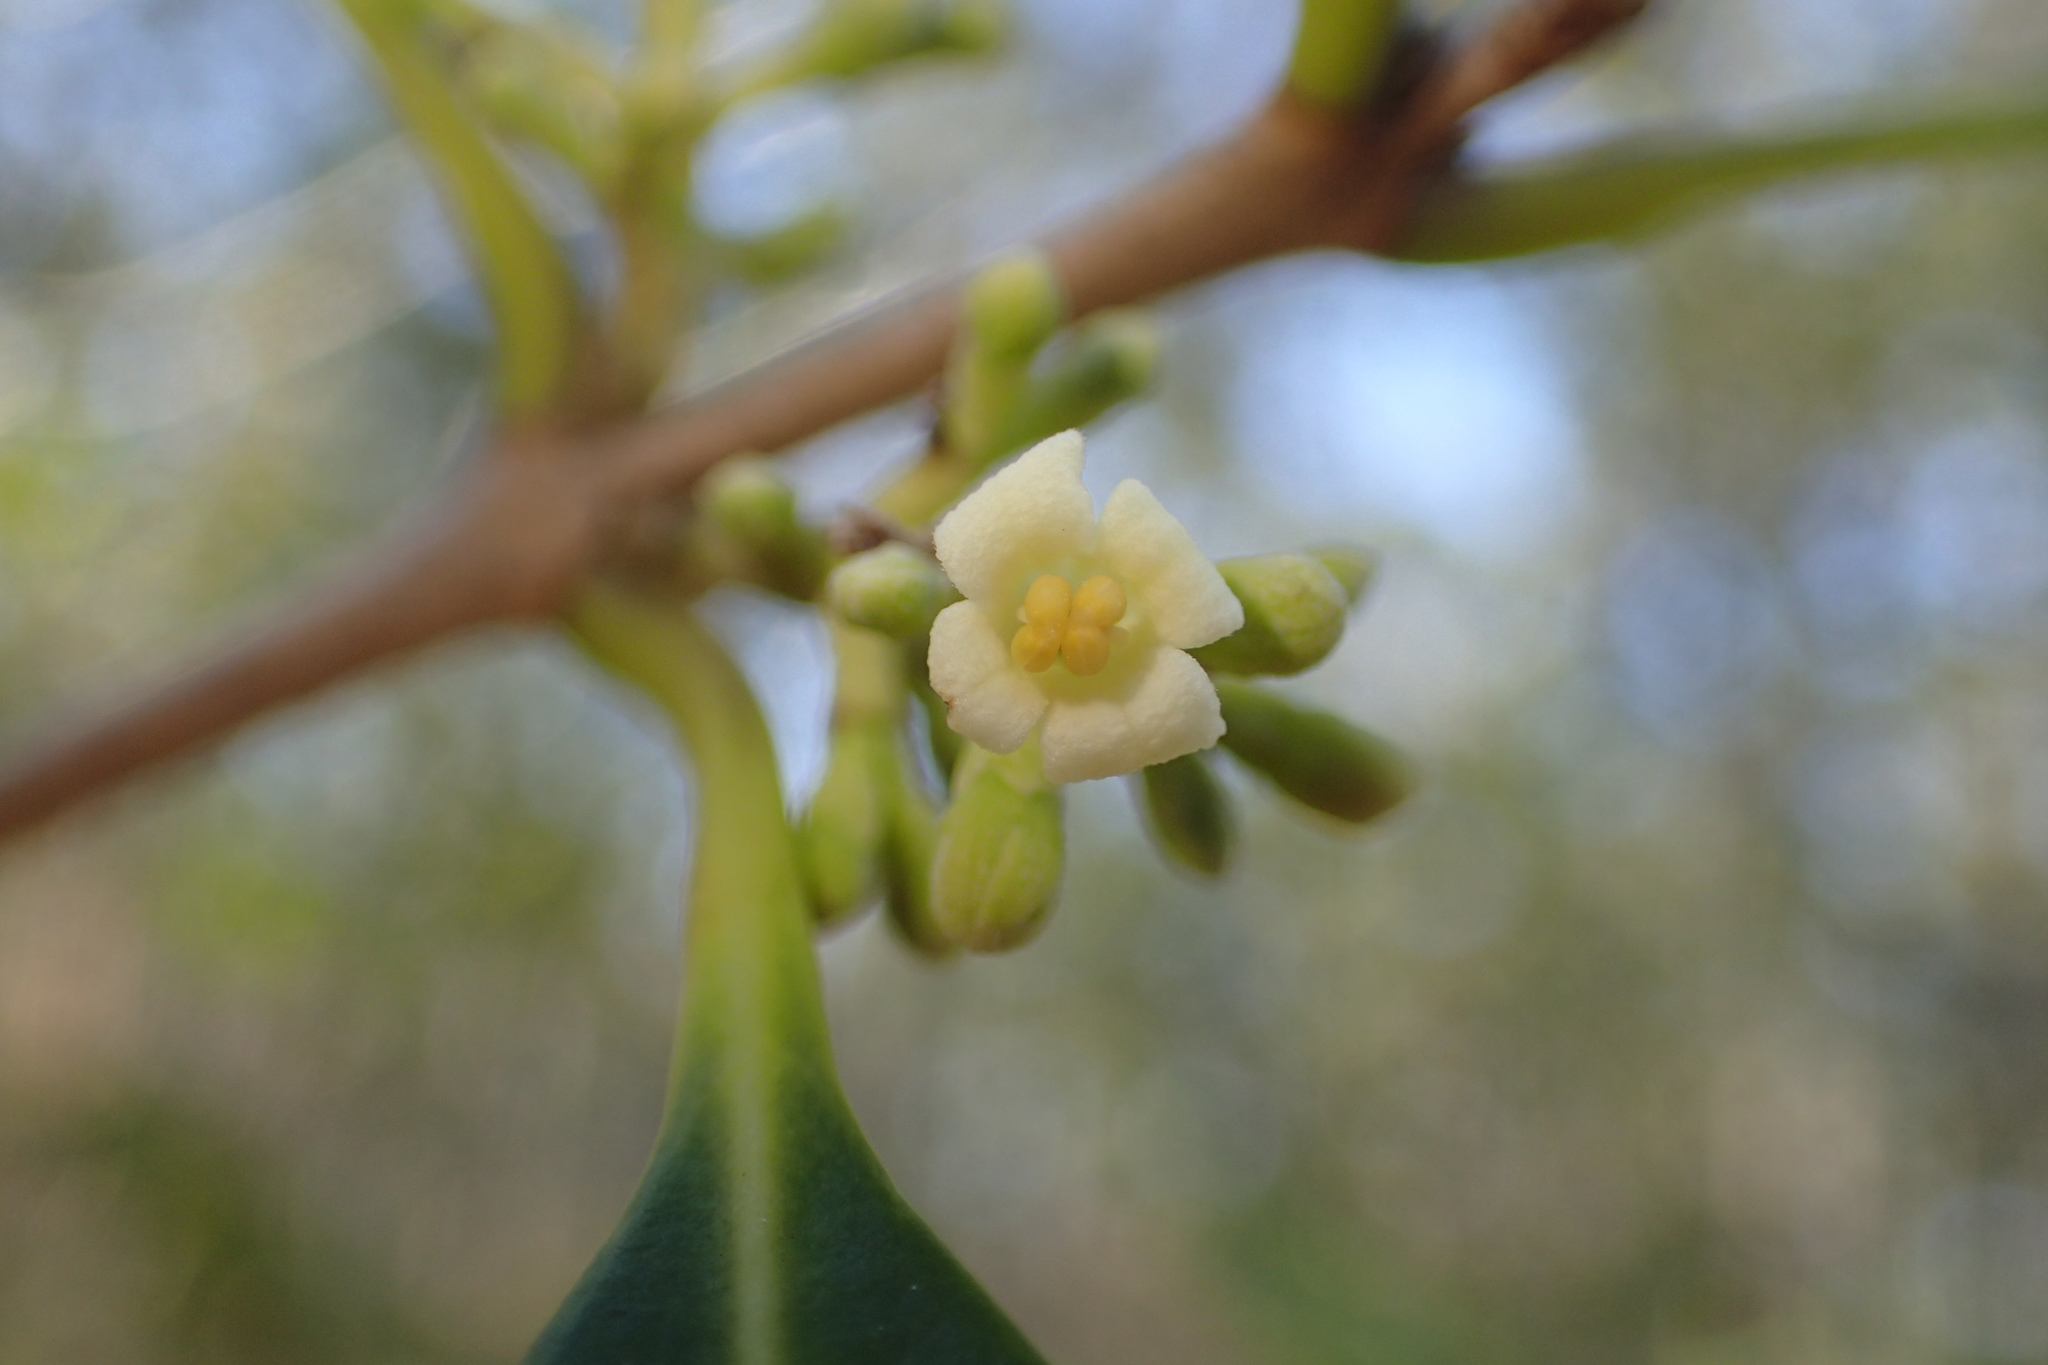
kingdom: Plantae
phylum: Tracheophyta
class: Magnoliopsida
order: Lamiales
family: Oleaceae
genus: Cartrema
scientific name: Cartrema americana
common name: Devilwood
